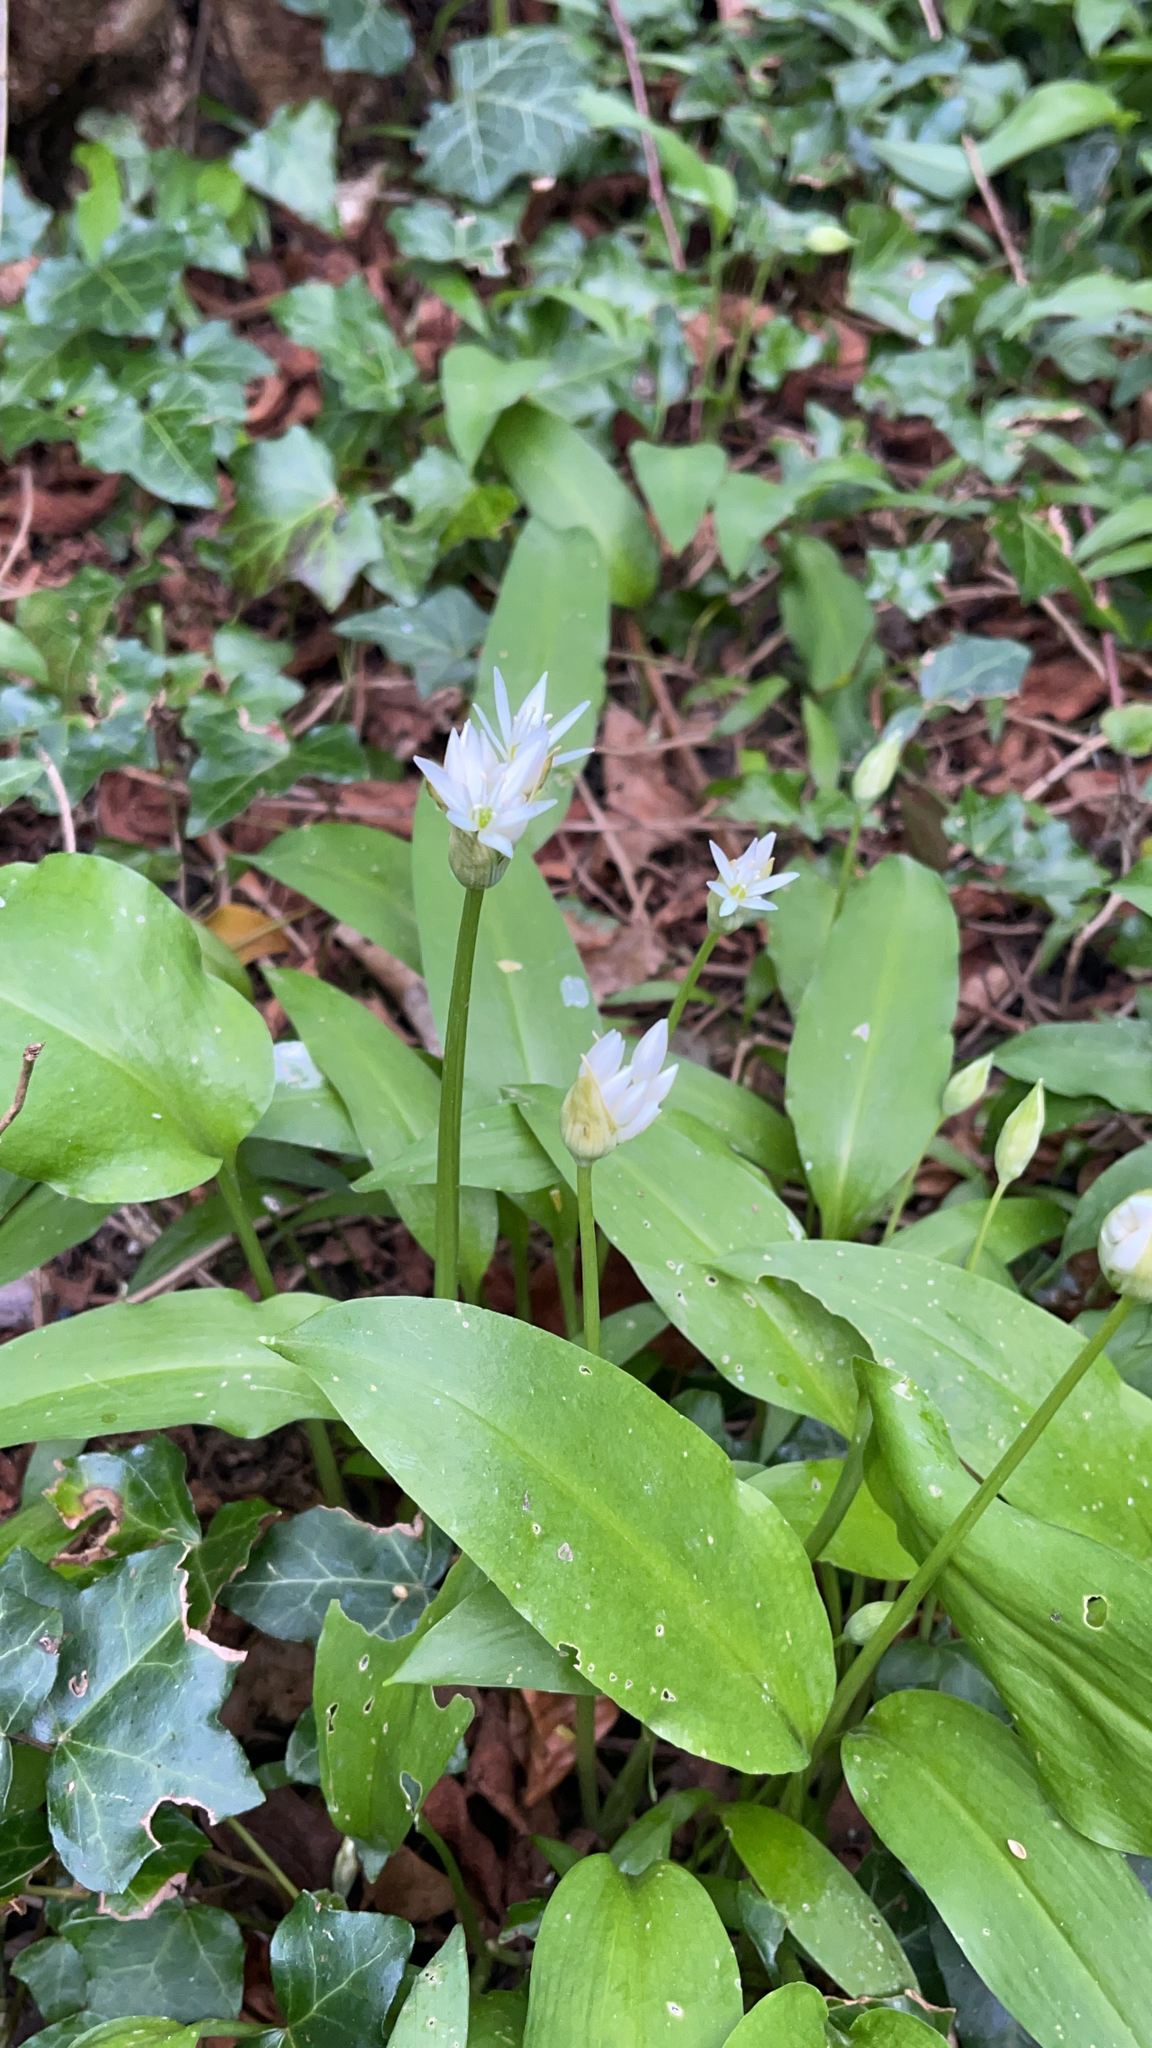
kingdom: Plantae
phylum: Tracheophyta
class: Liliopsida
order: Asparagales
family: Amaryllidaceae
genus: Allium
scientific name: Allium ursinum
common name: Ramsons
